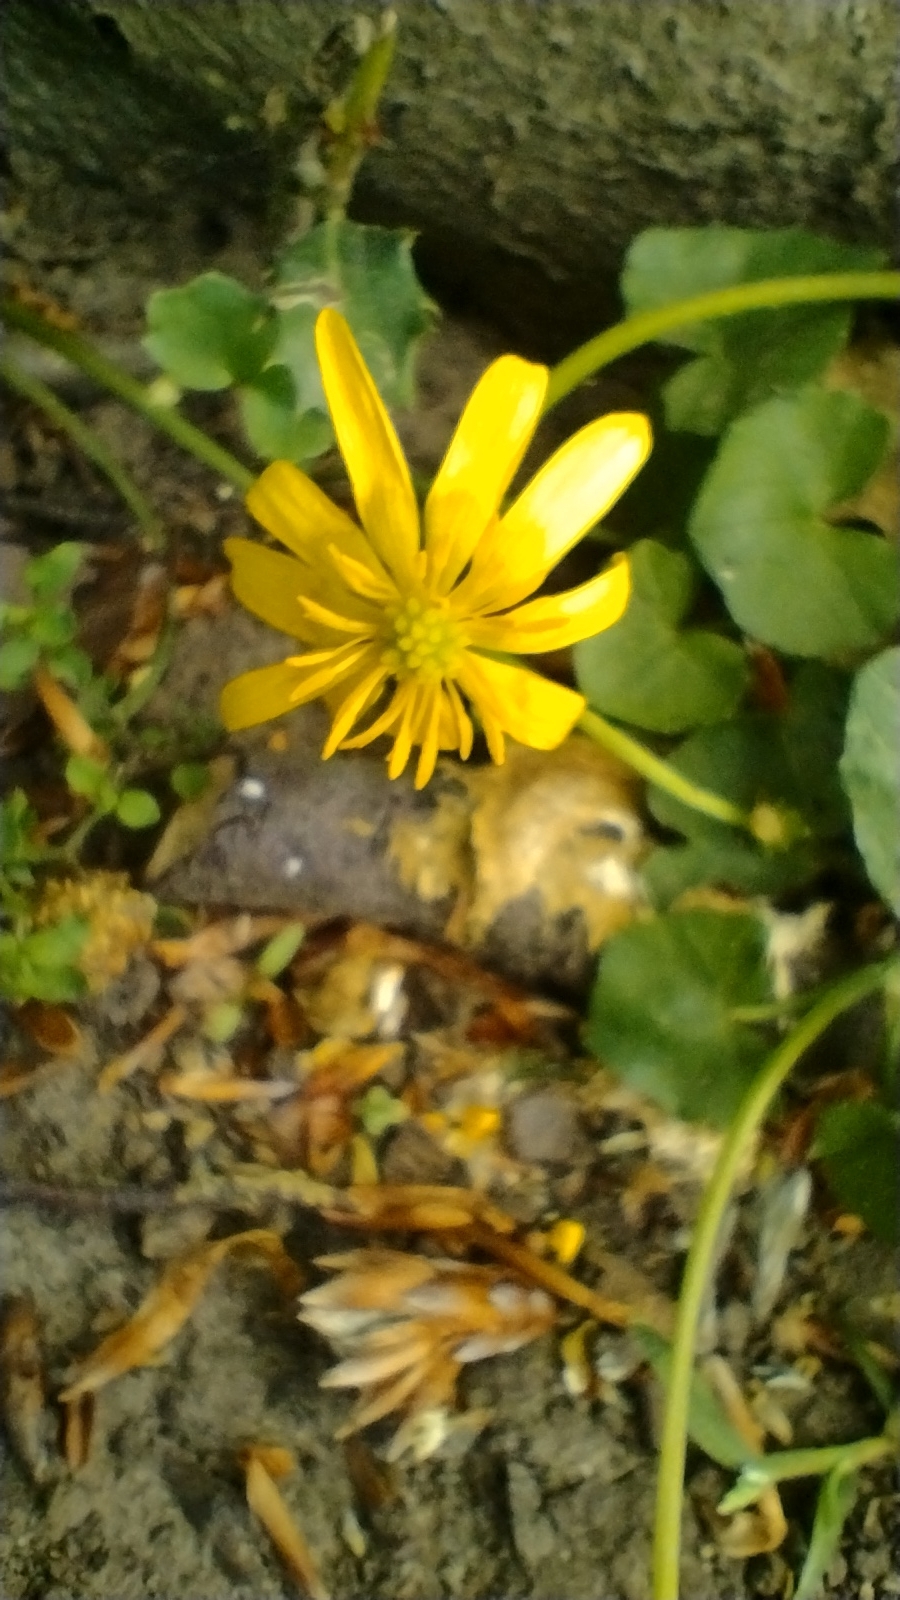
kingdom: Plantae
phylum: Tracheophyta
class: Magnoliopsida
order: Ranunculales
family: Ranunculaceae
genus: Ficaria
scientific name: Ficaria verna
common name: Lesser celandine
